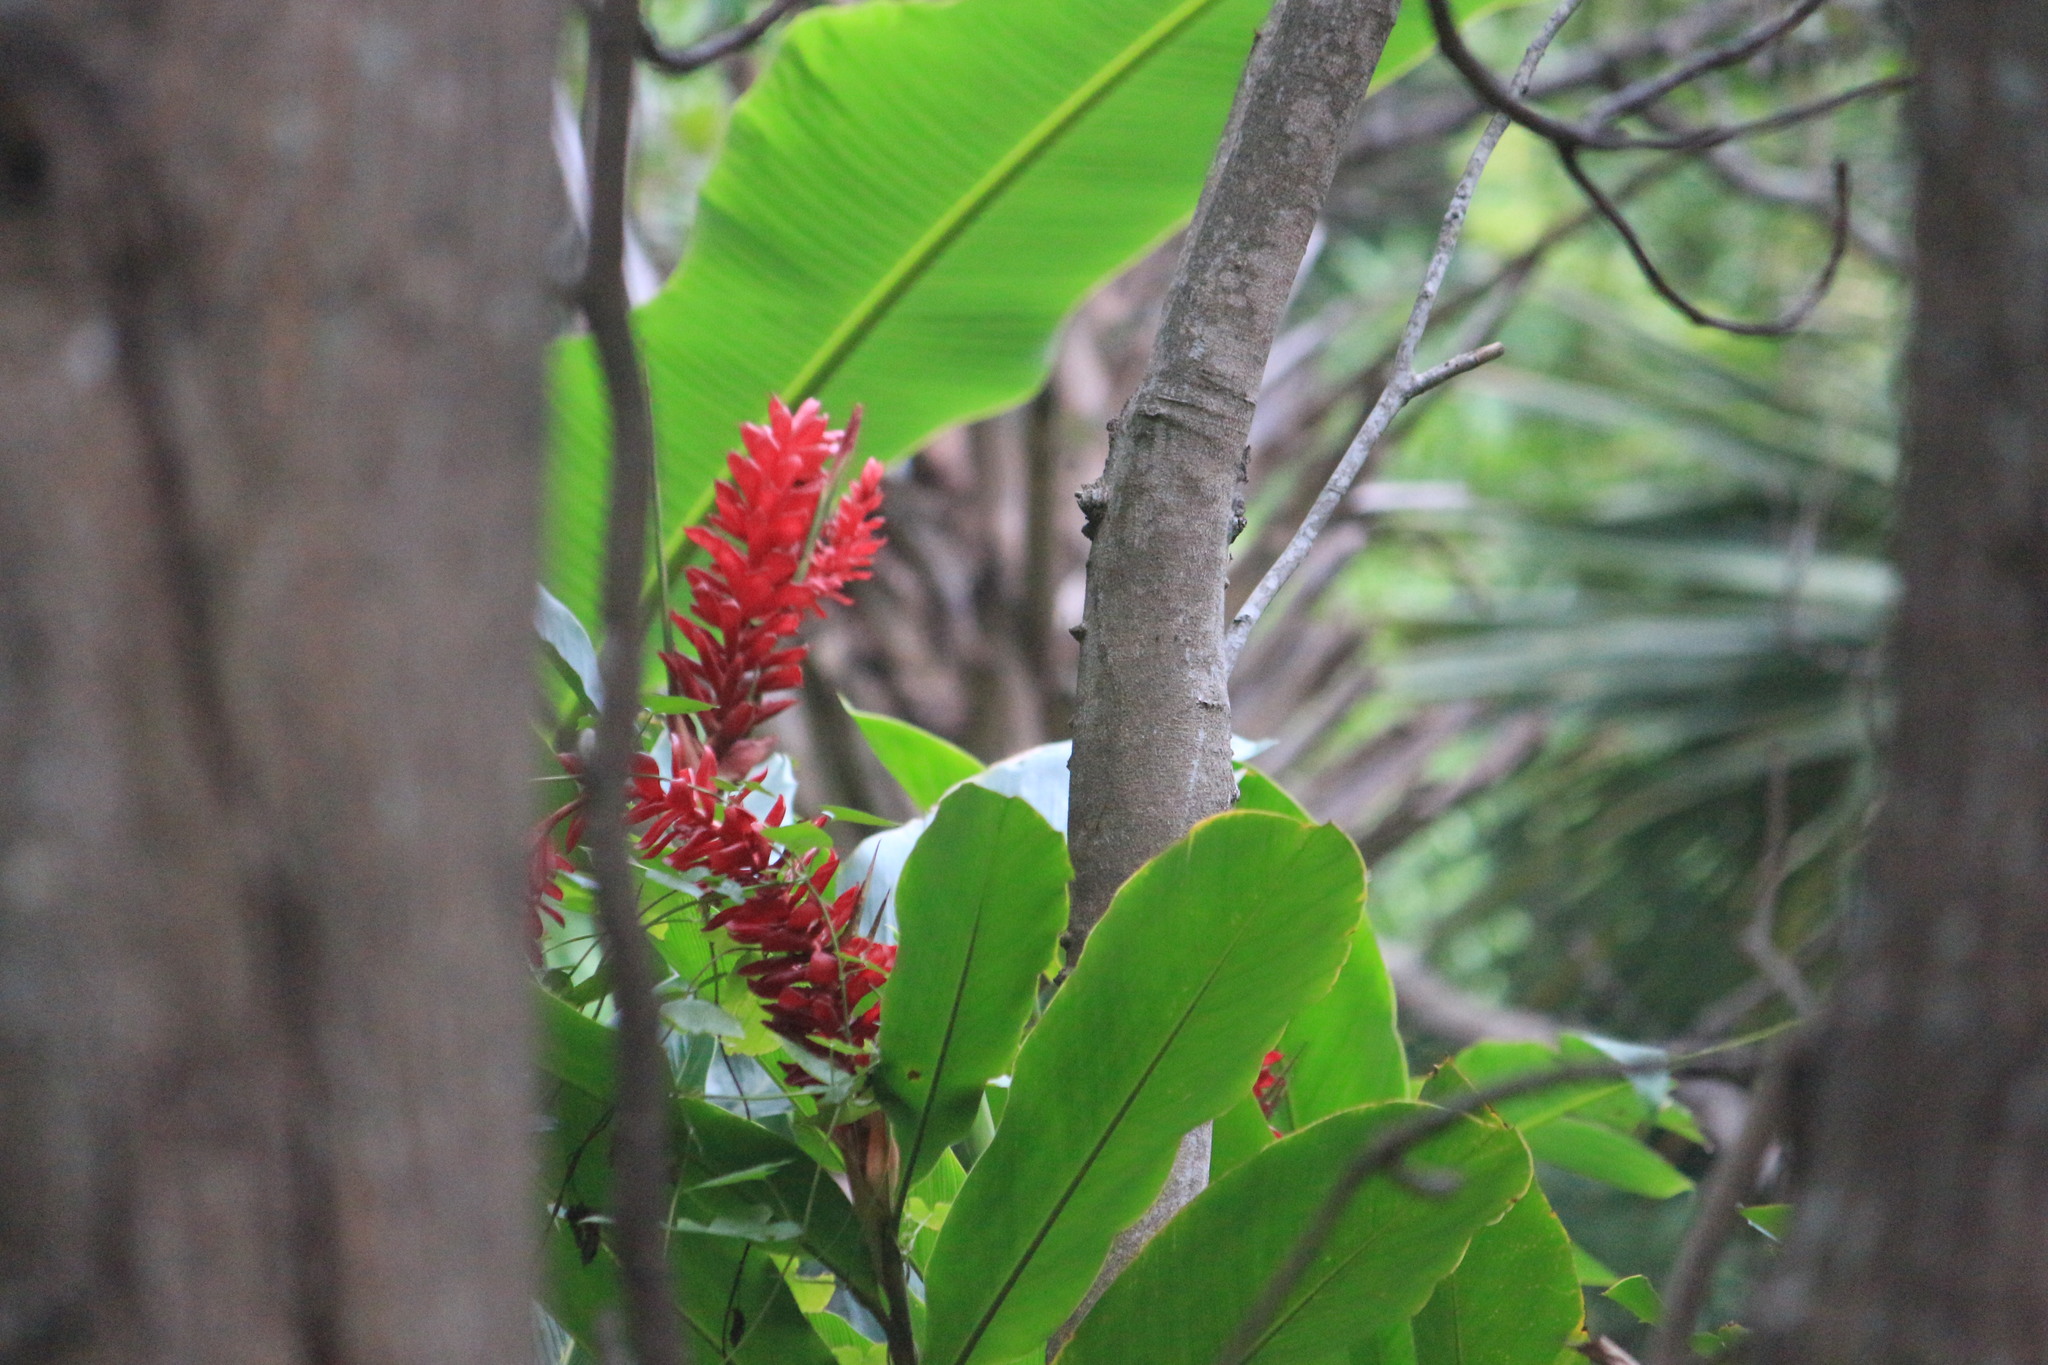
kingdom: Plantae
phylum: Tracheophyta
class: Liliopsida
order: Zingiberales
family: Zingiberaceae
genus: Alpinia
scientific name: Alpinia purpurata
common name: Red ginger
